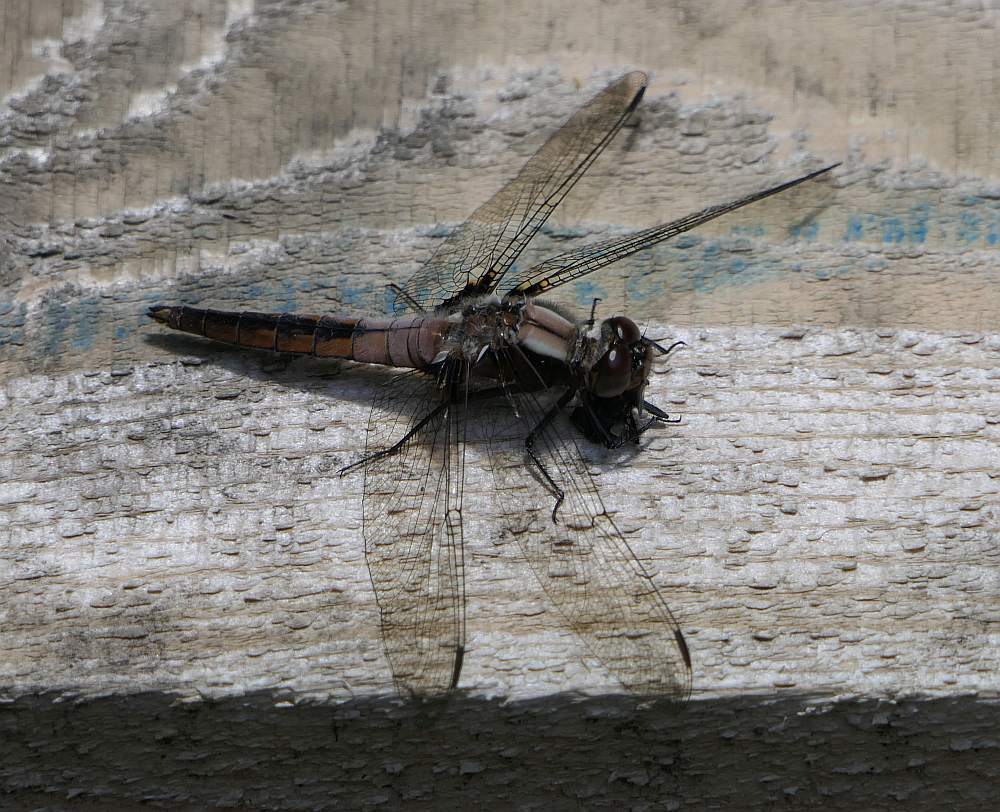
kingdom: Animalia
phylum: Arthropoda
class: Insecta
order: Odonata
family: Libellulidae
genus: Ladona
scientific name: Ladona julia
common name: Chalk-fronted corporal
